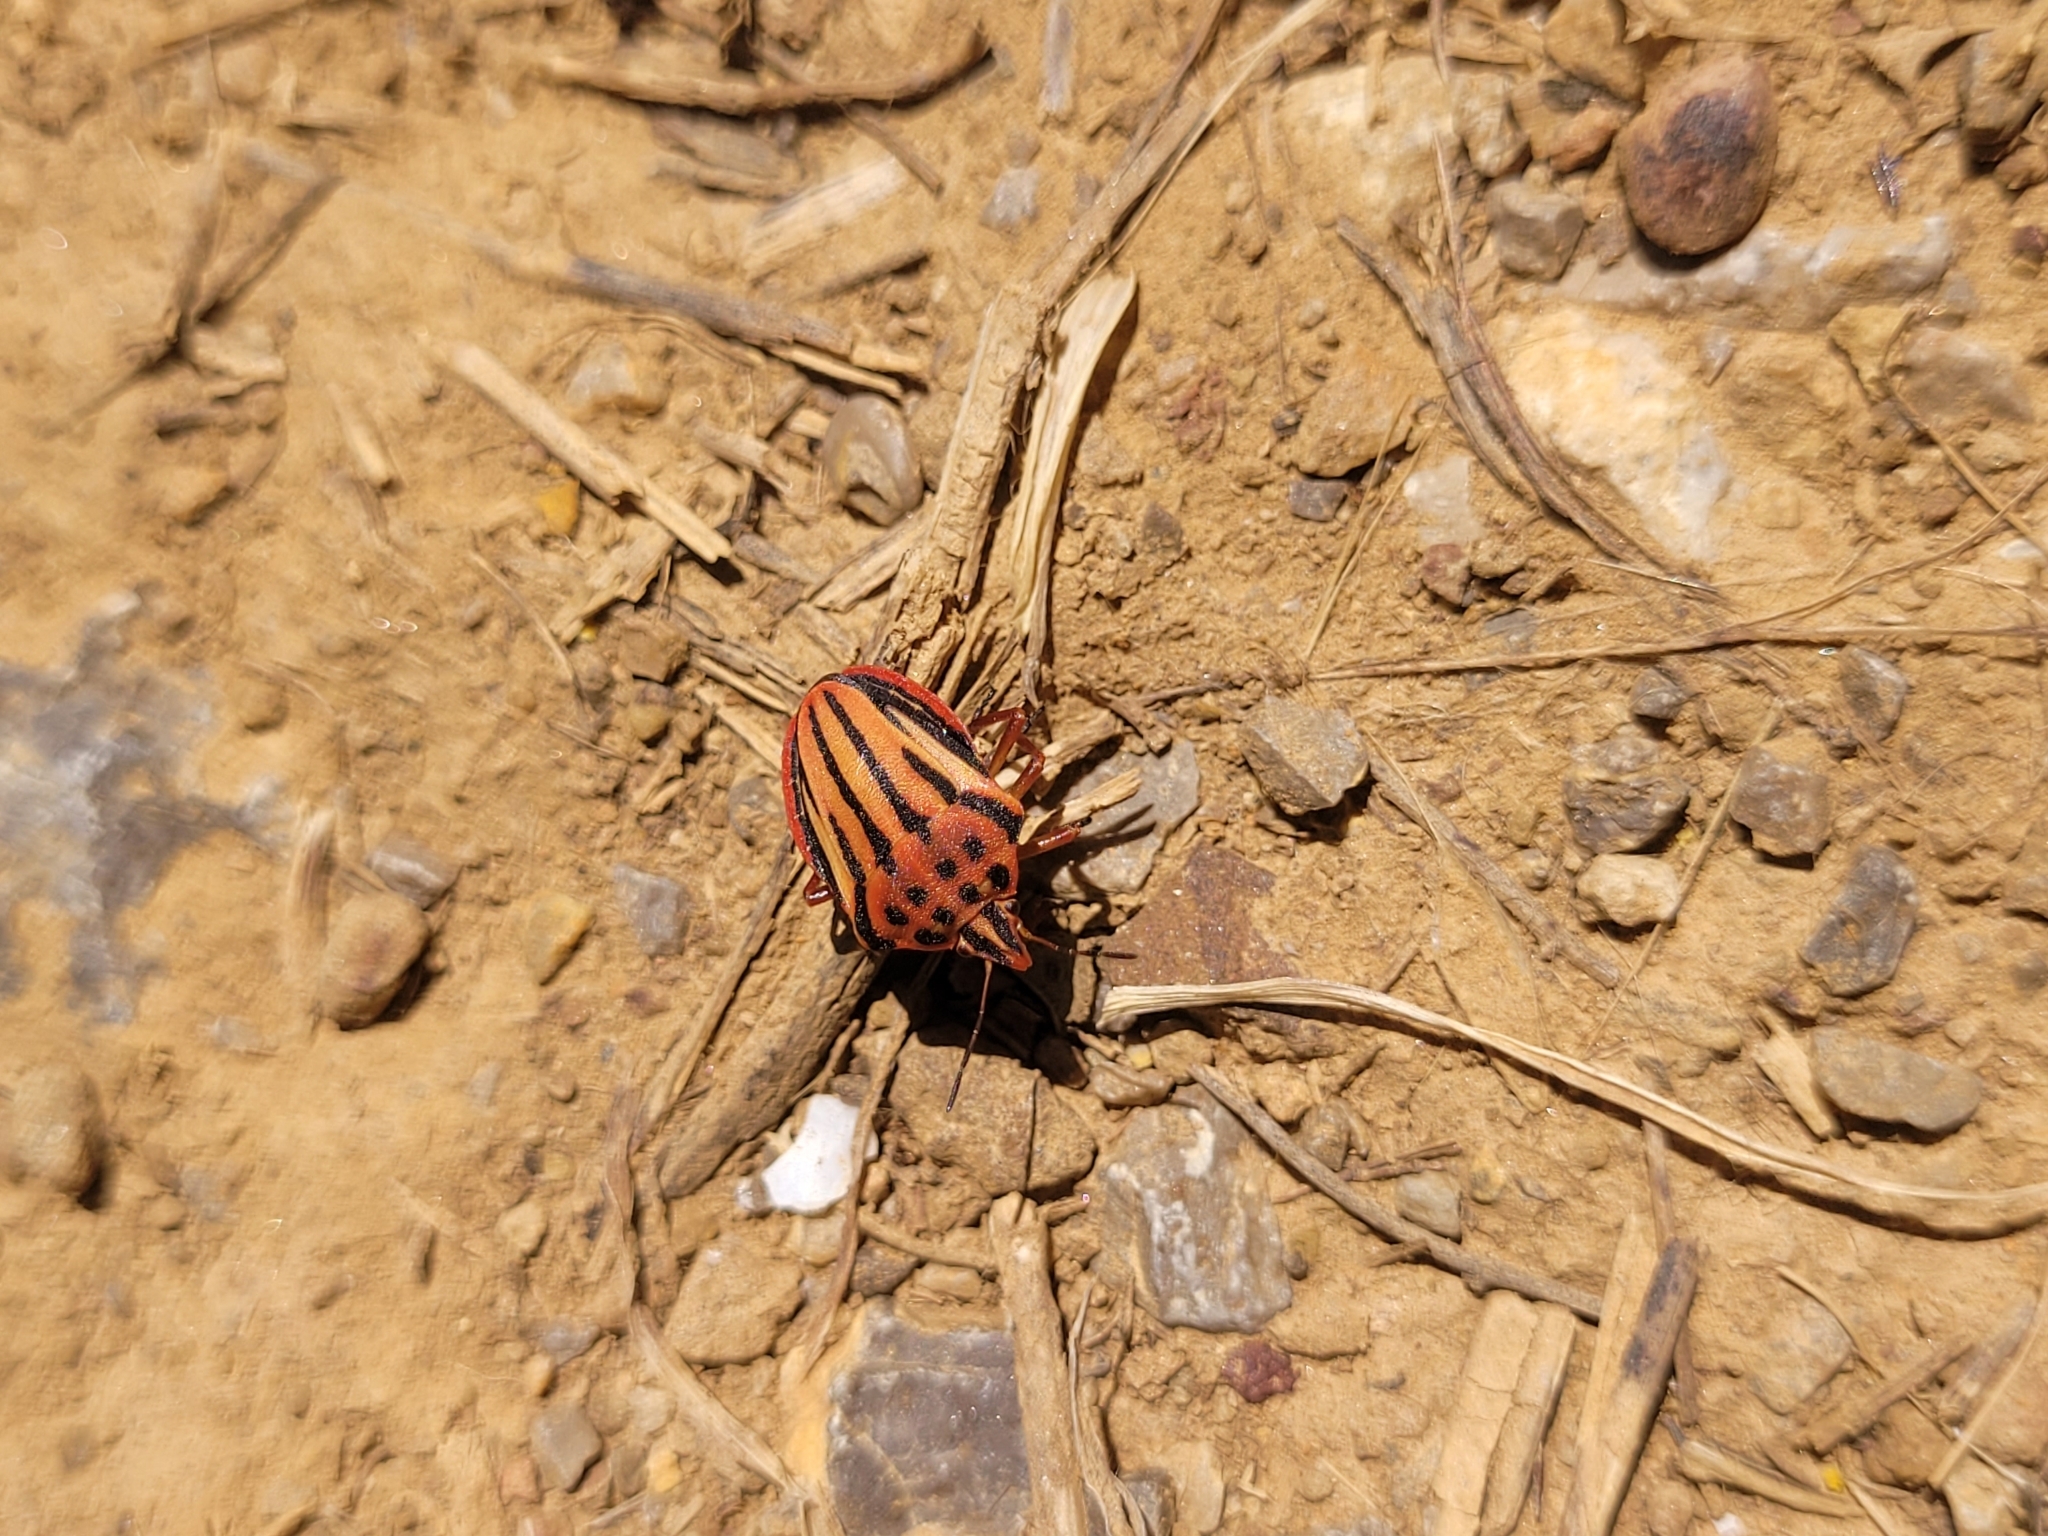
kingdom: Animalia
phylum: Arthropoda
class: Insecta
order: Hemiptera
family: Pentatomidae
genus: Graphosoma
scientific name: Graphosoma semipunctatum
